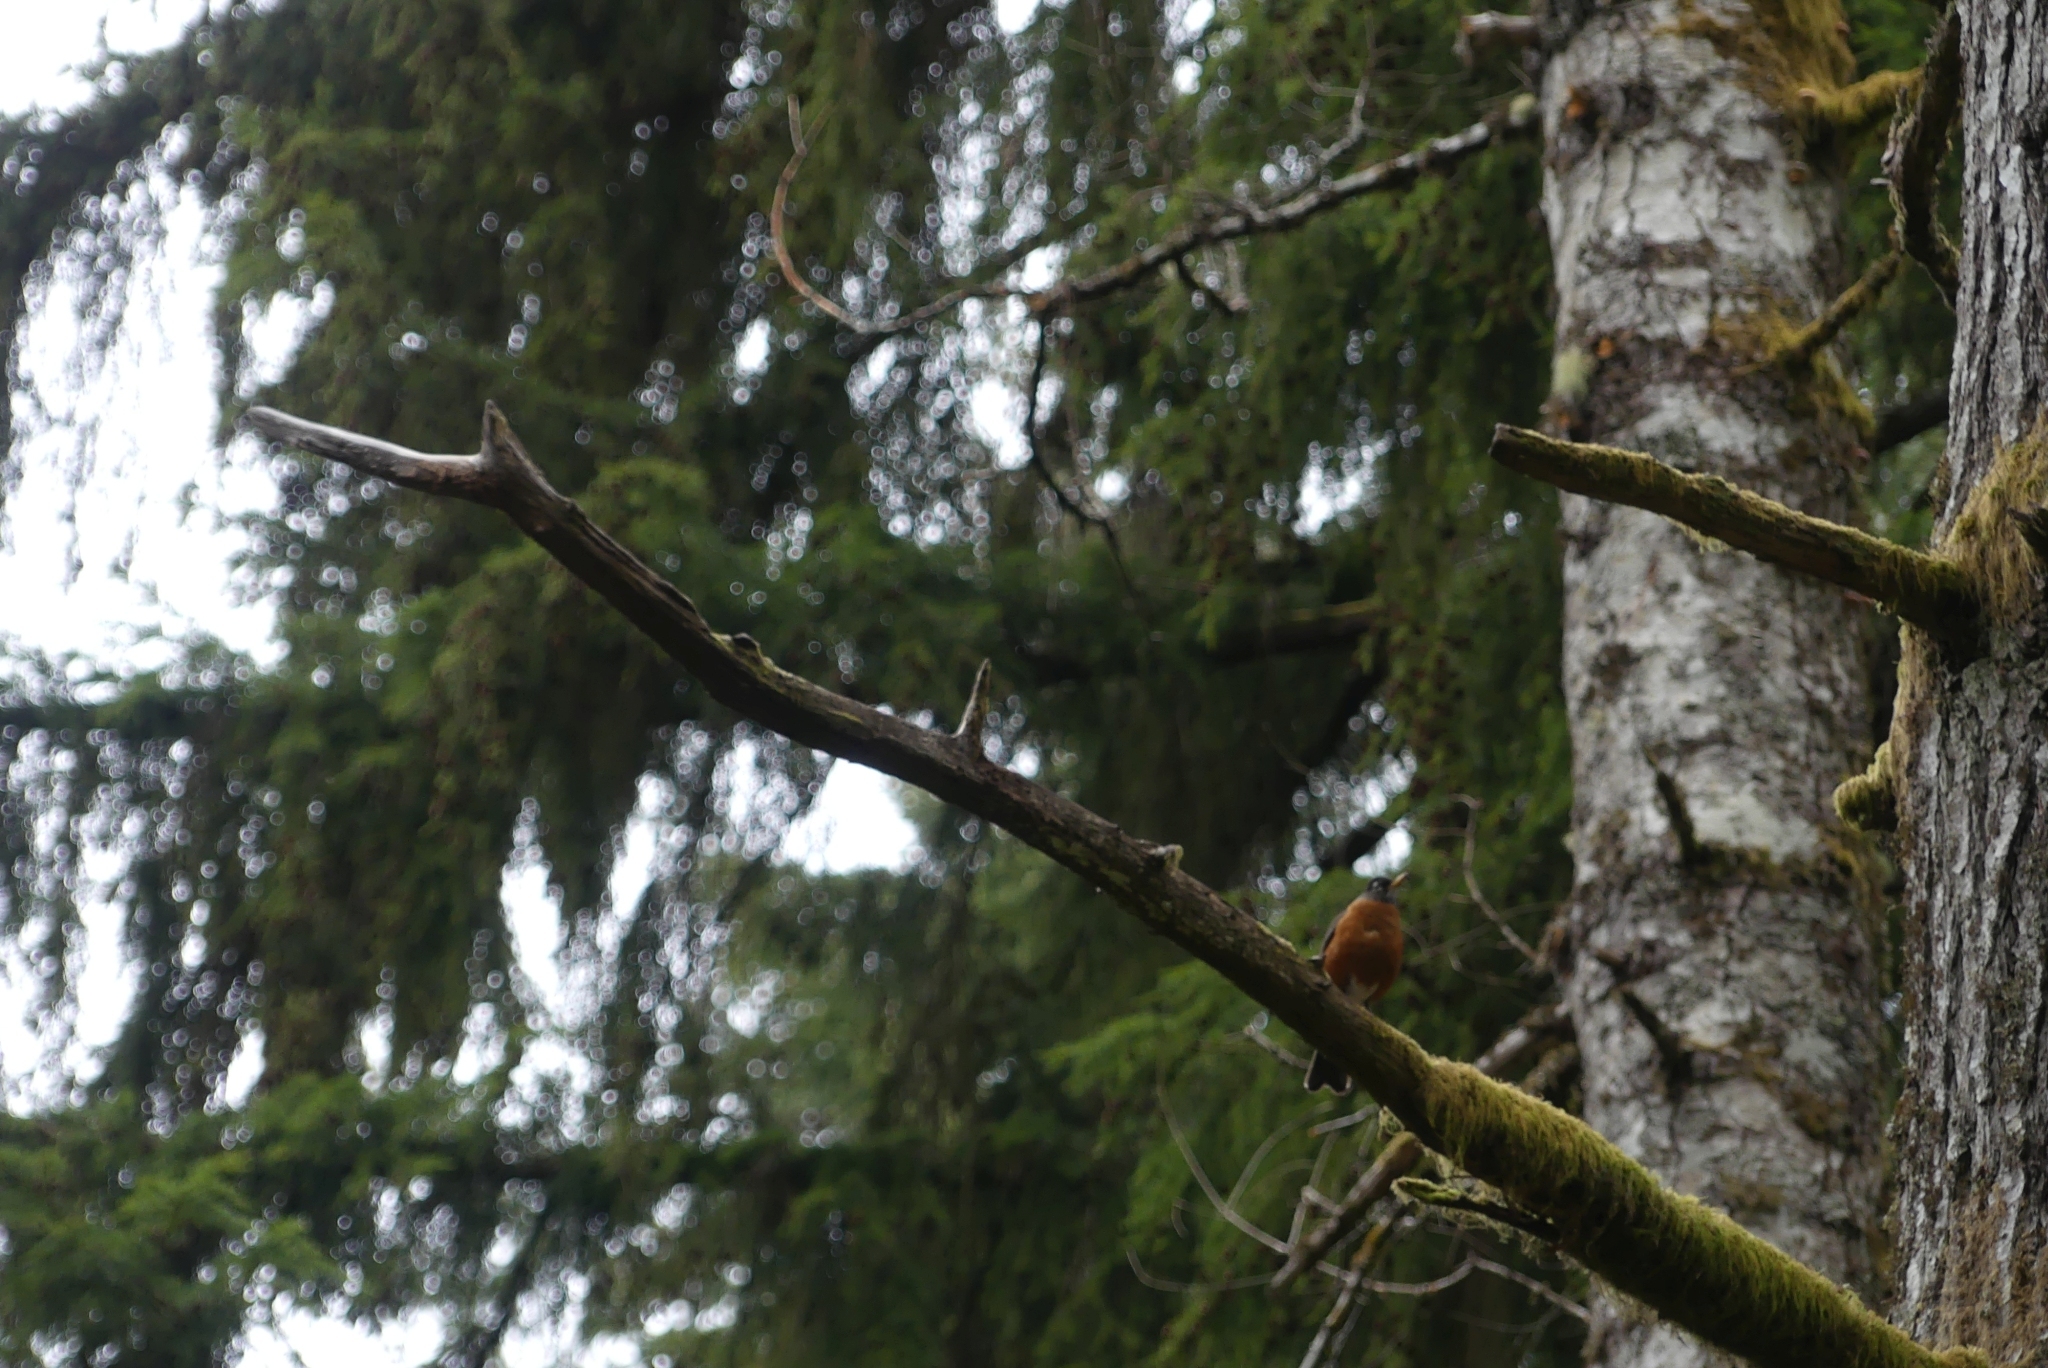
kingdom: Animalia
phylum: Chordata
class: Aves
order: Passeriformes
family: Turdidae
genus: Turdus
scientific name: Turdus migratorius
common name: American robin
